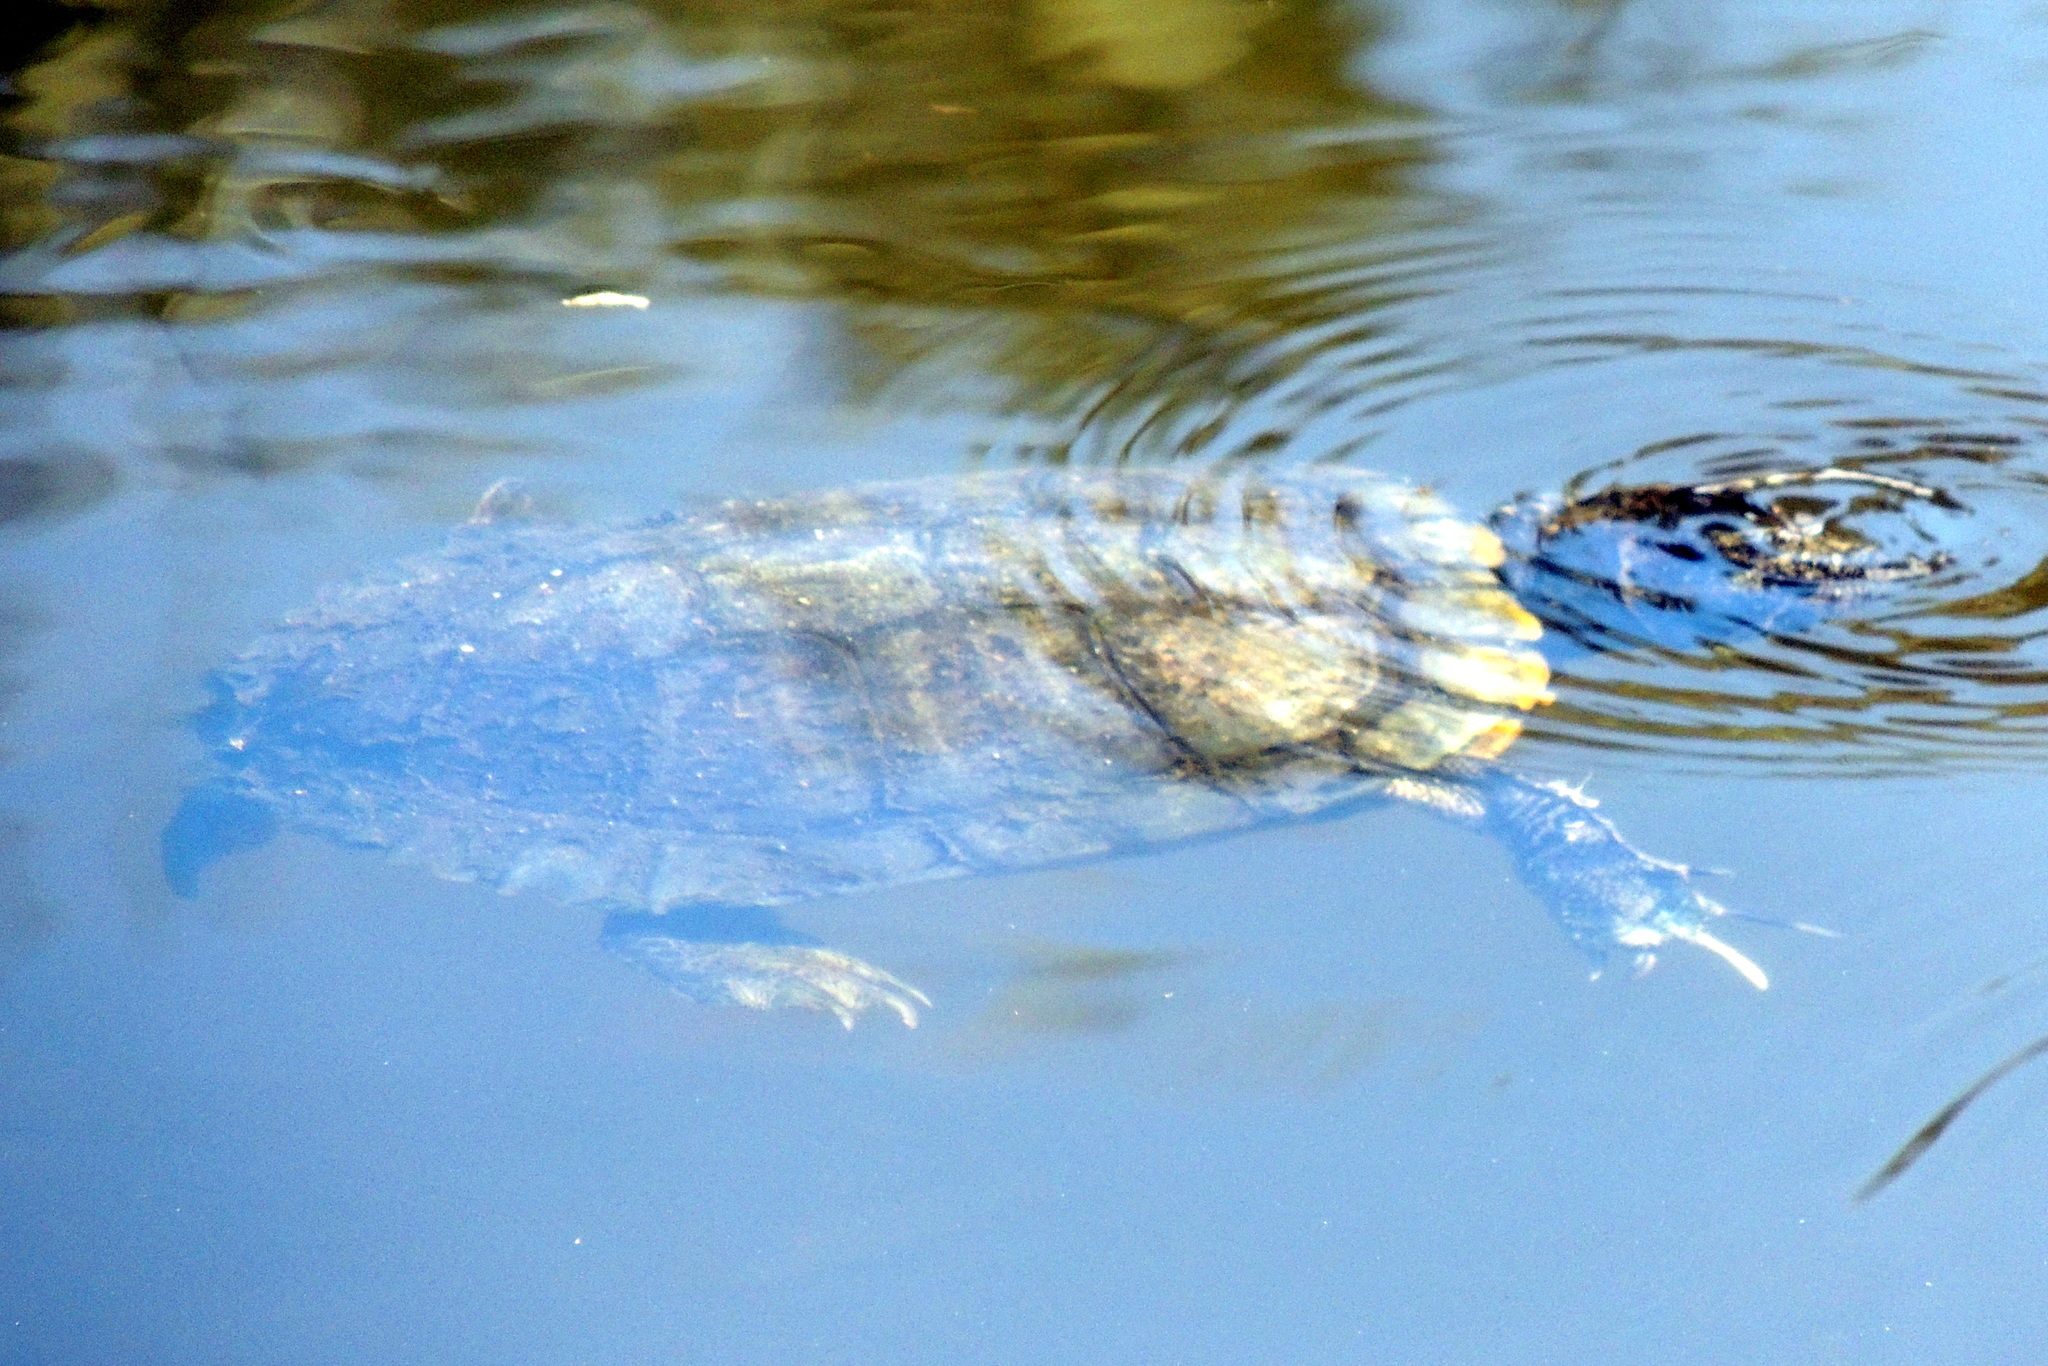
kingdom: Animalia
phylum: Chordata
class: Testudines
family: Emydidae
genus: Trachemys
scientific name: Trachemys scripta
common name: Slider
